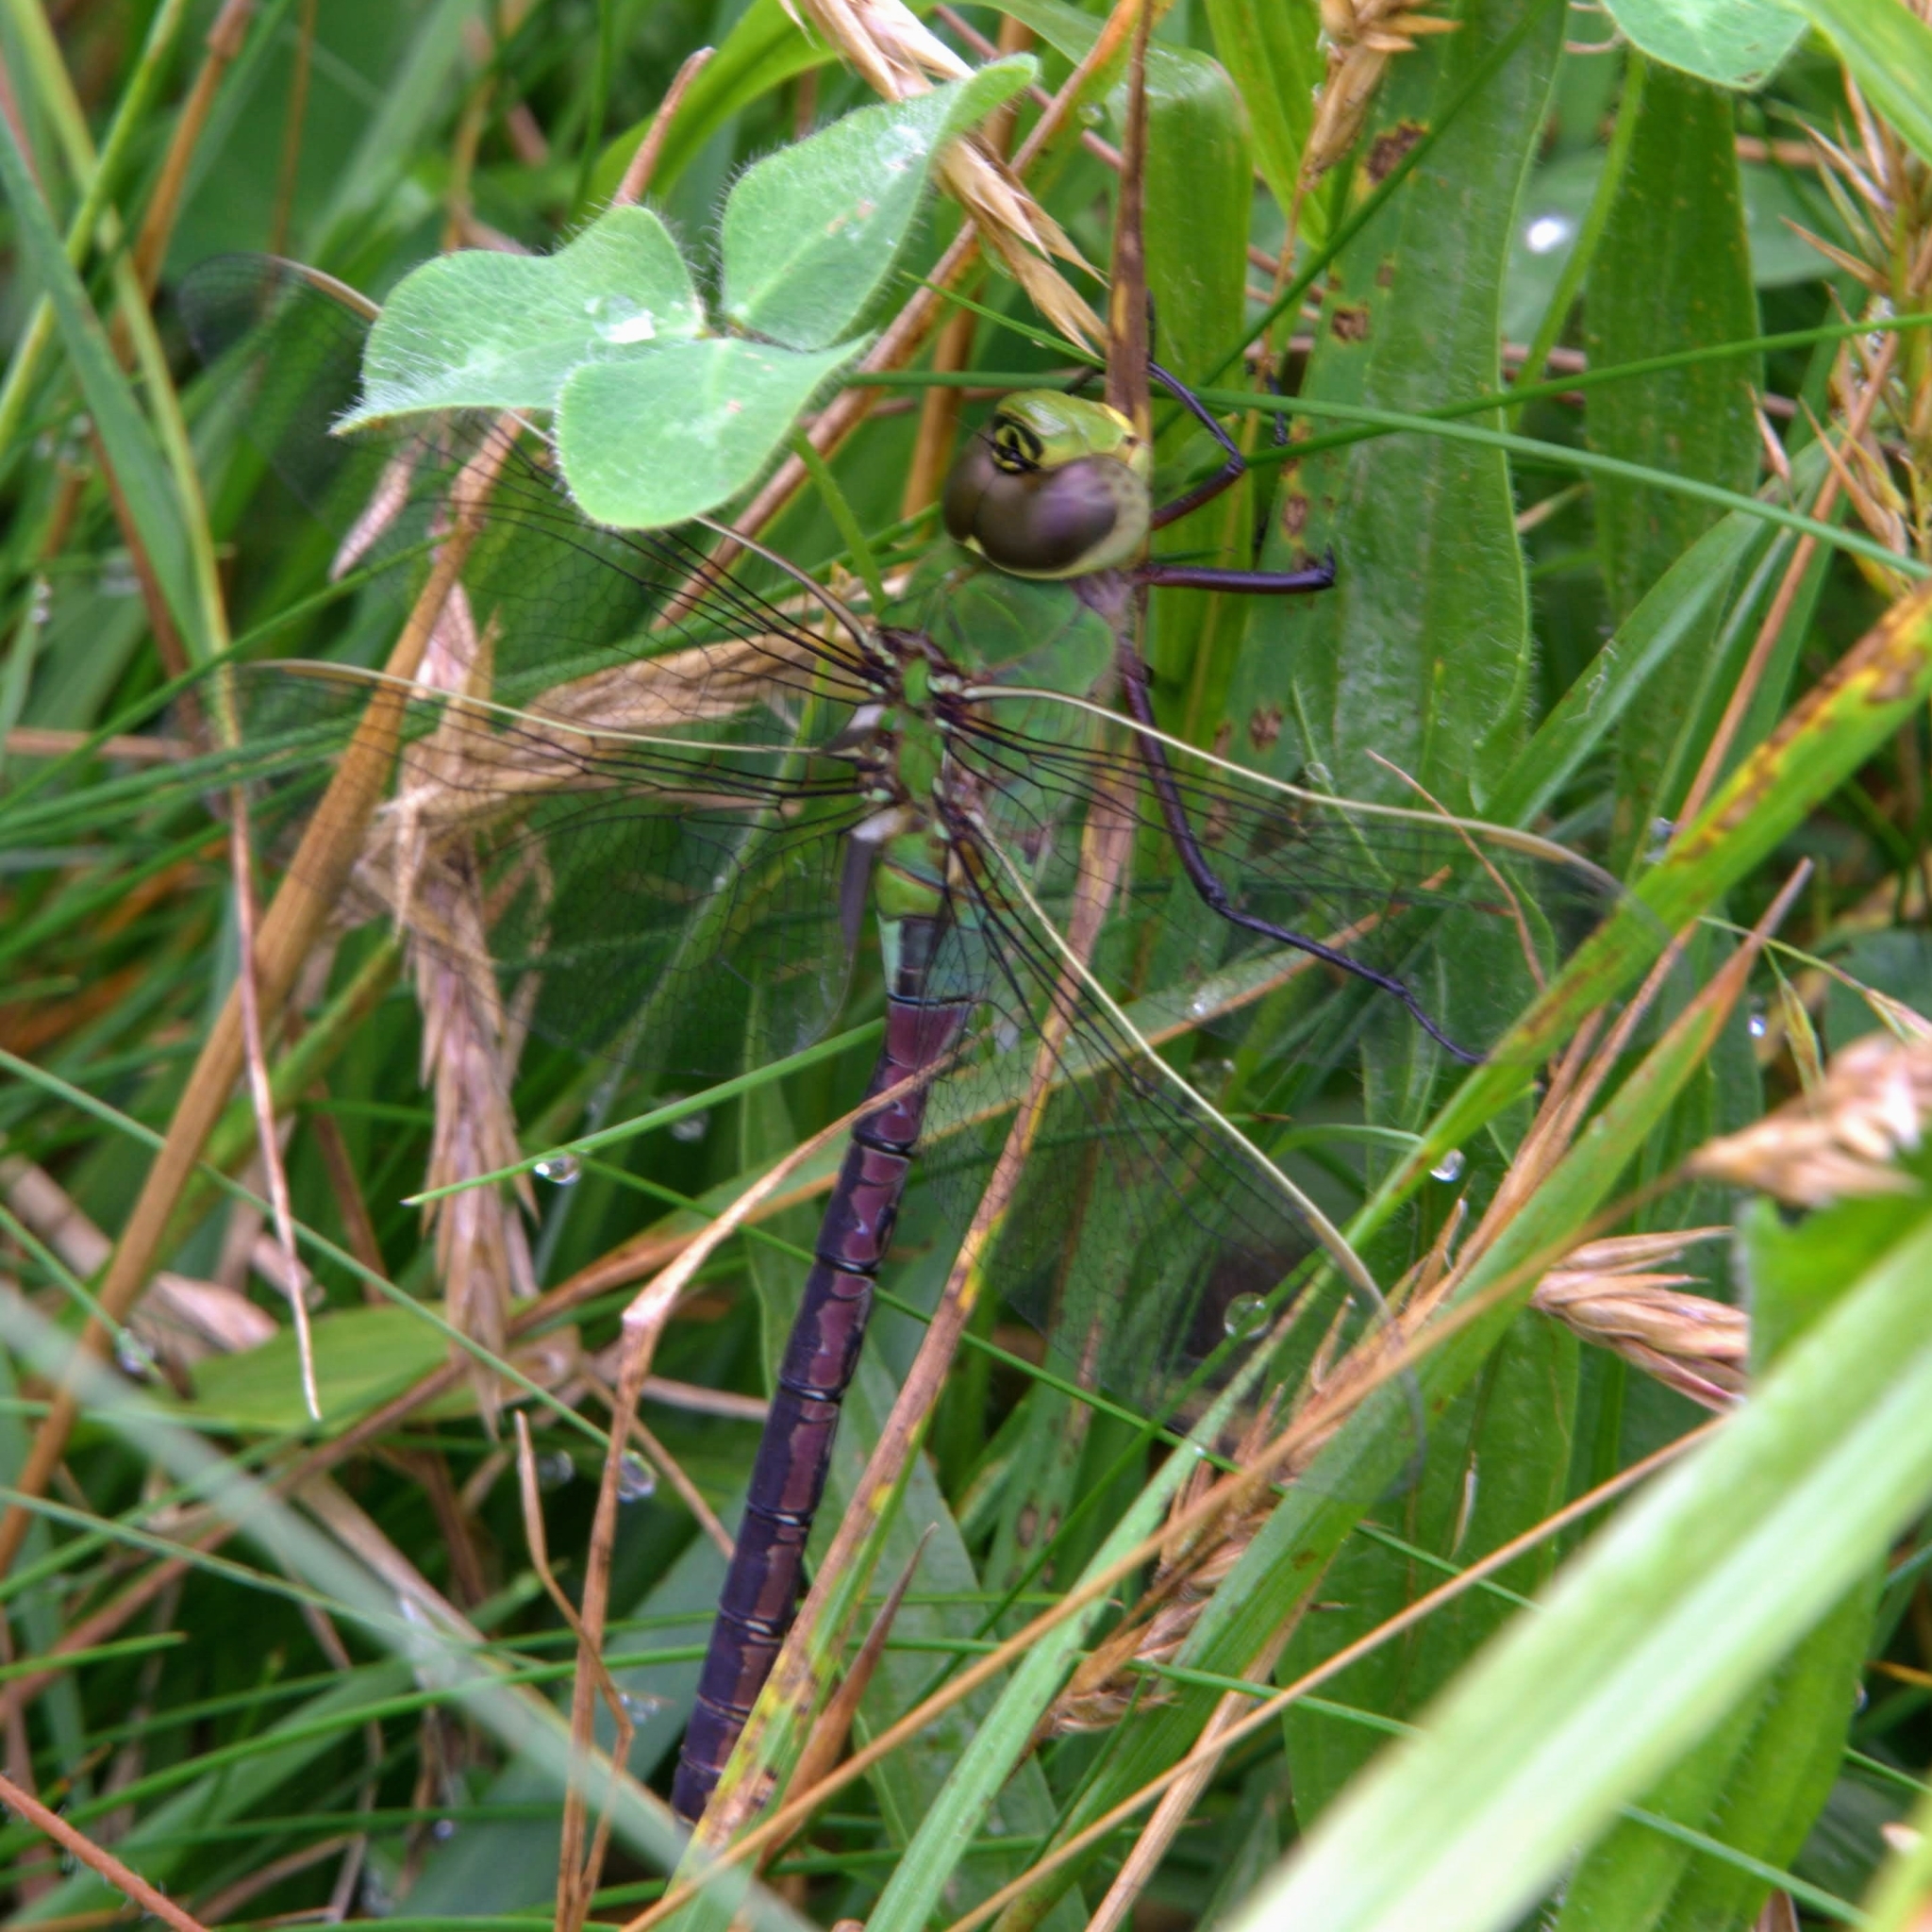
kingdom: Animalia
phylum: Arthropoda
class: Insecta
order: Odonata
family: Aeshnidae
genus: Anax
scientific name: Anax junius
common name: Common green darner
